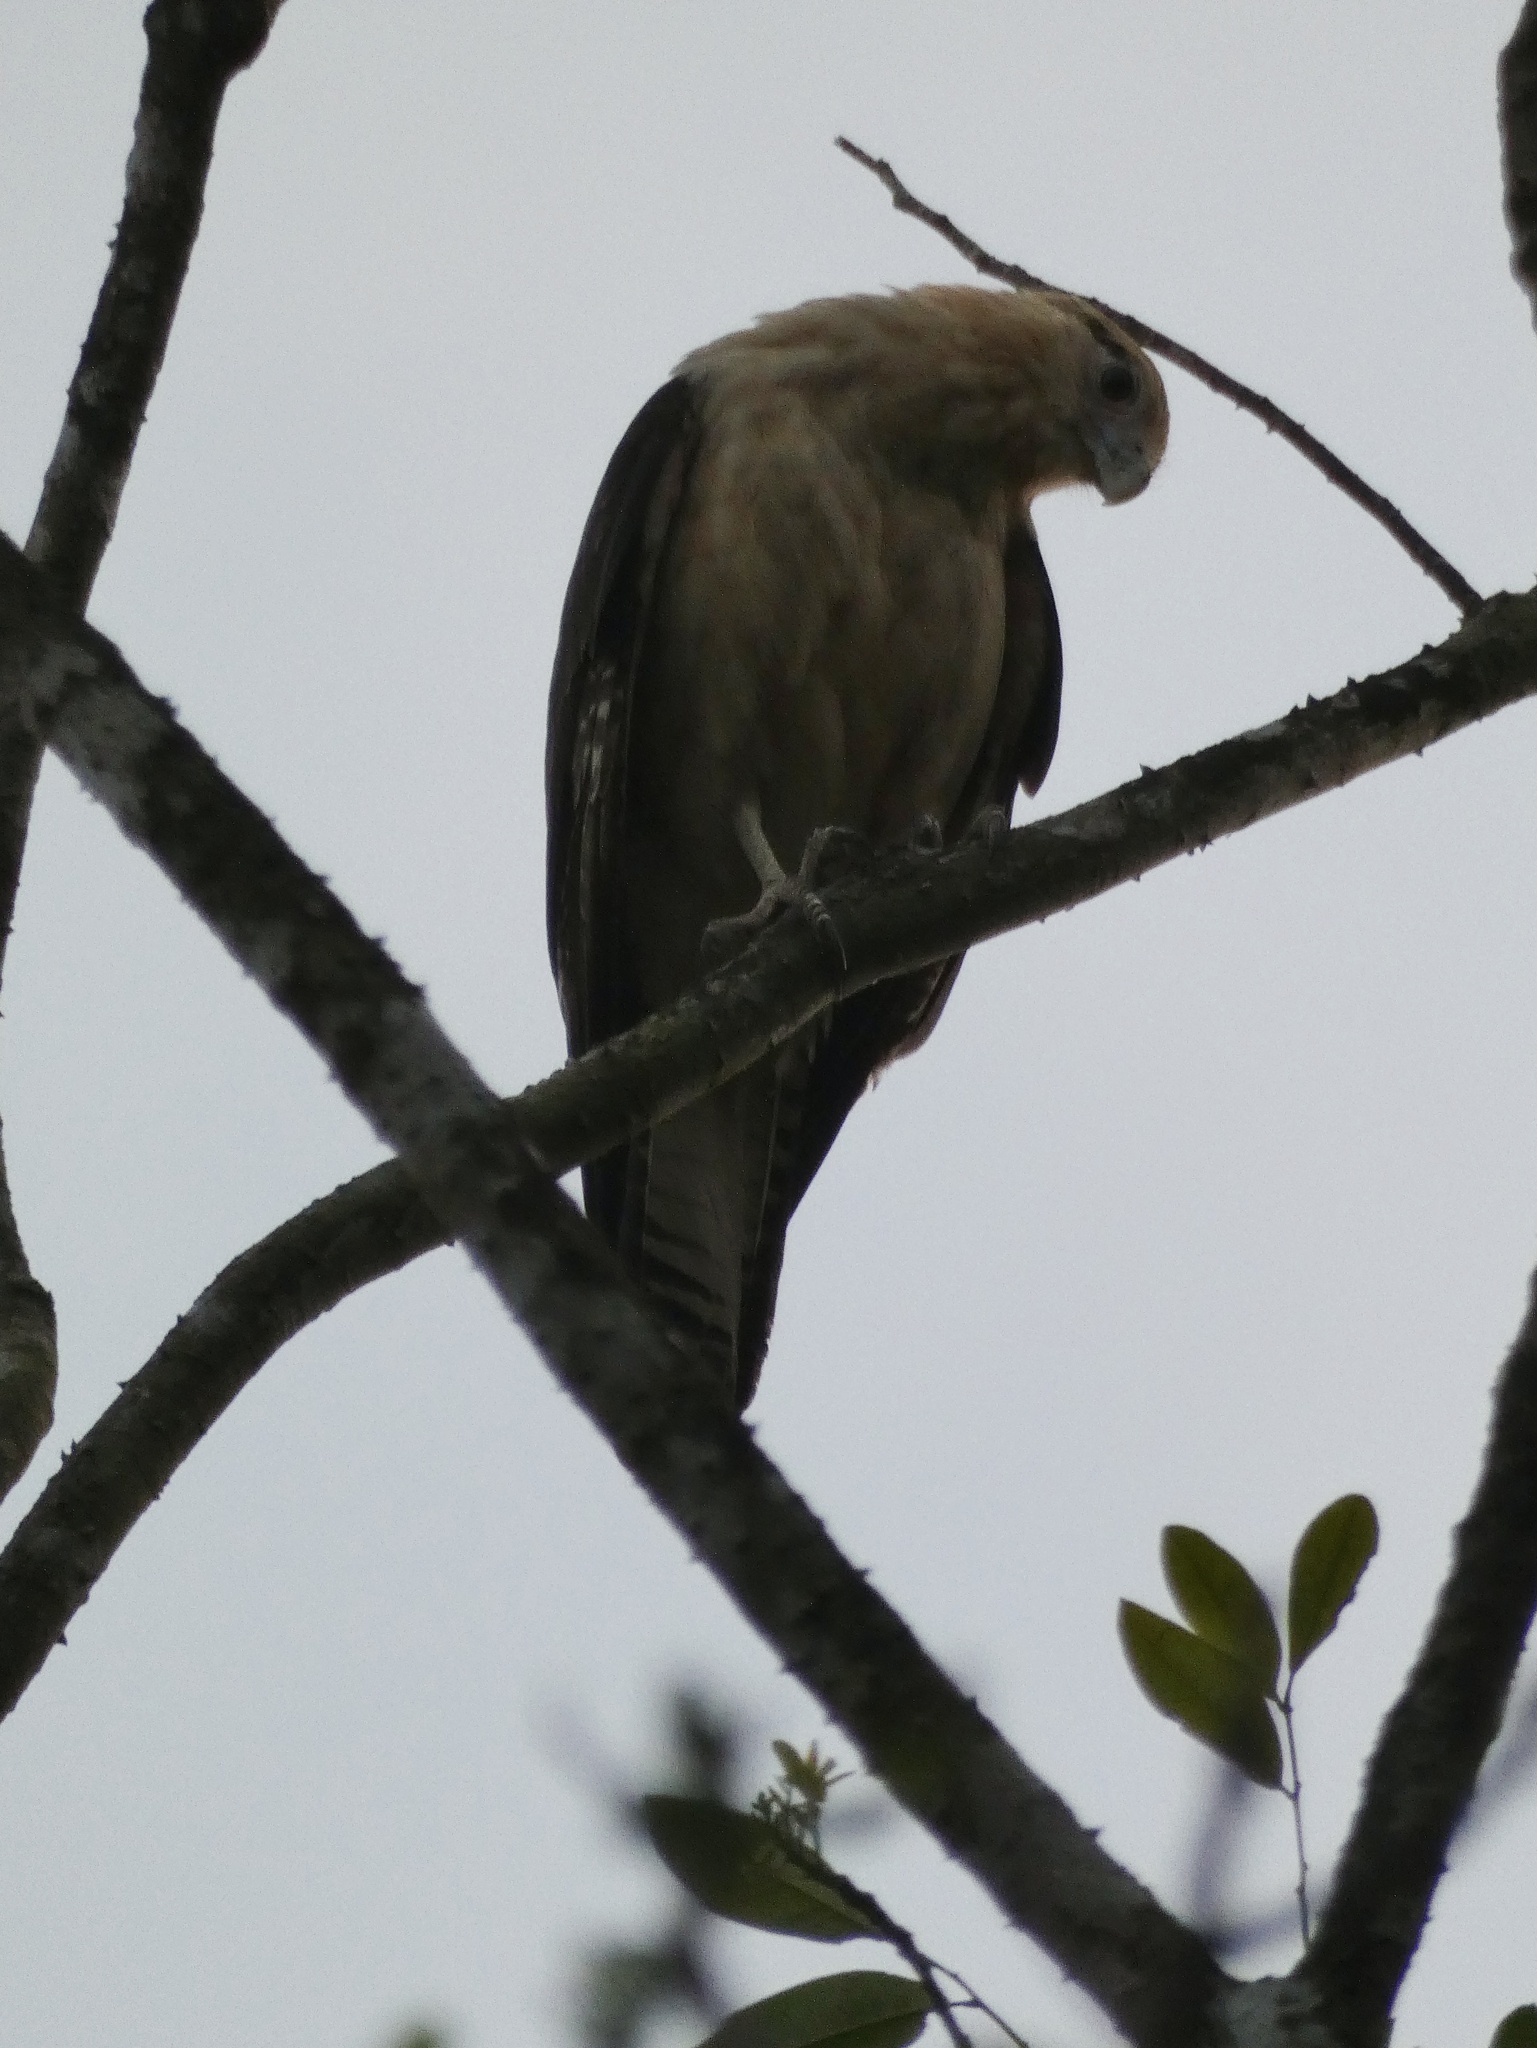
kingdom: Animalia
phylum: Chordata
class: Aves
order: Falconiformes
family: Falconidae
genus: Daptrius
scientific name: Daptrius
